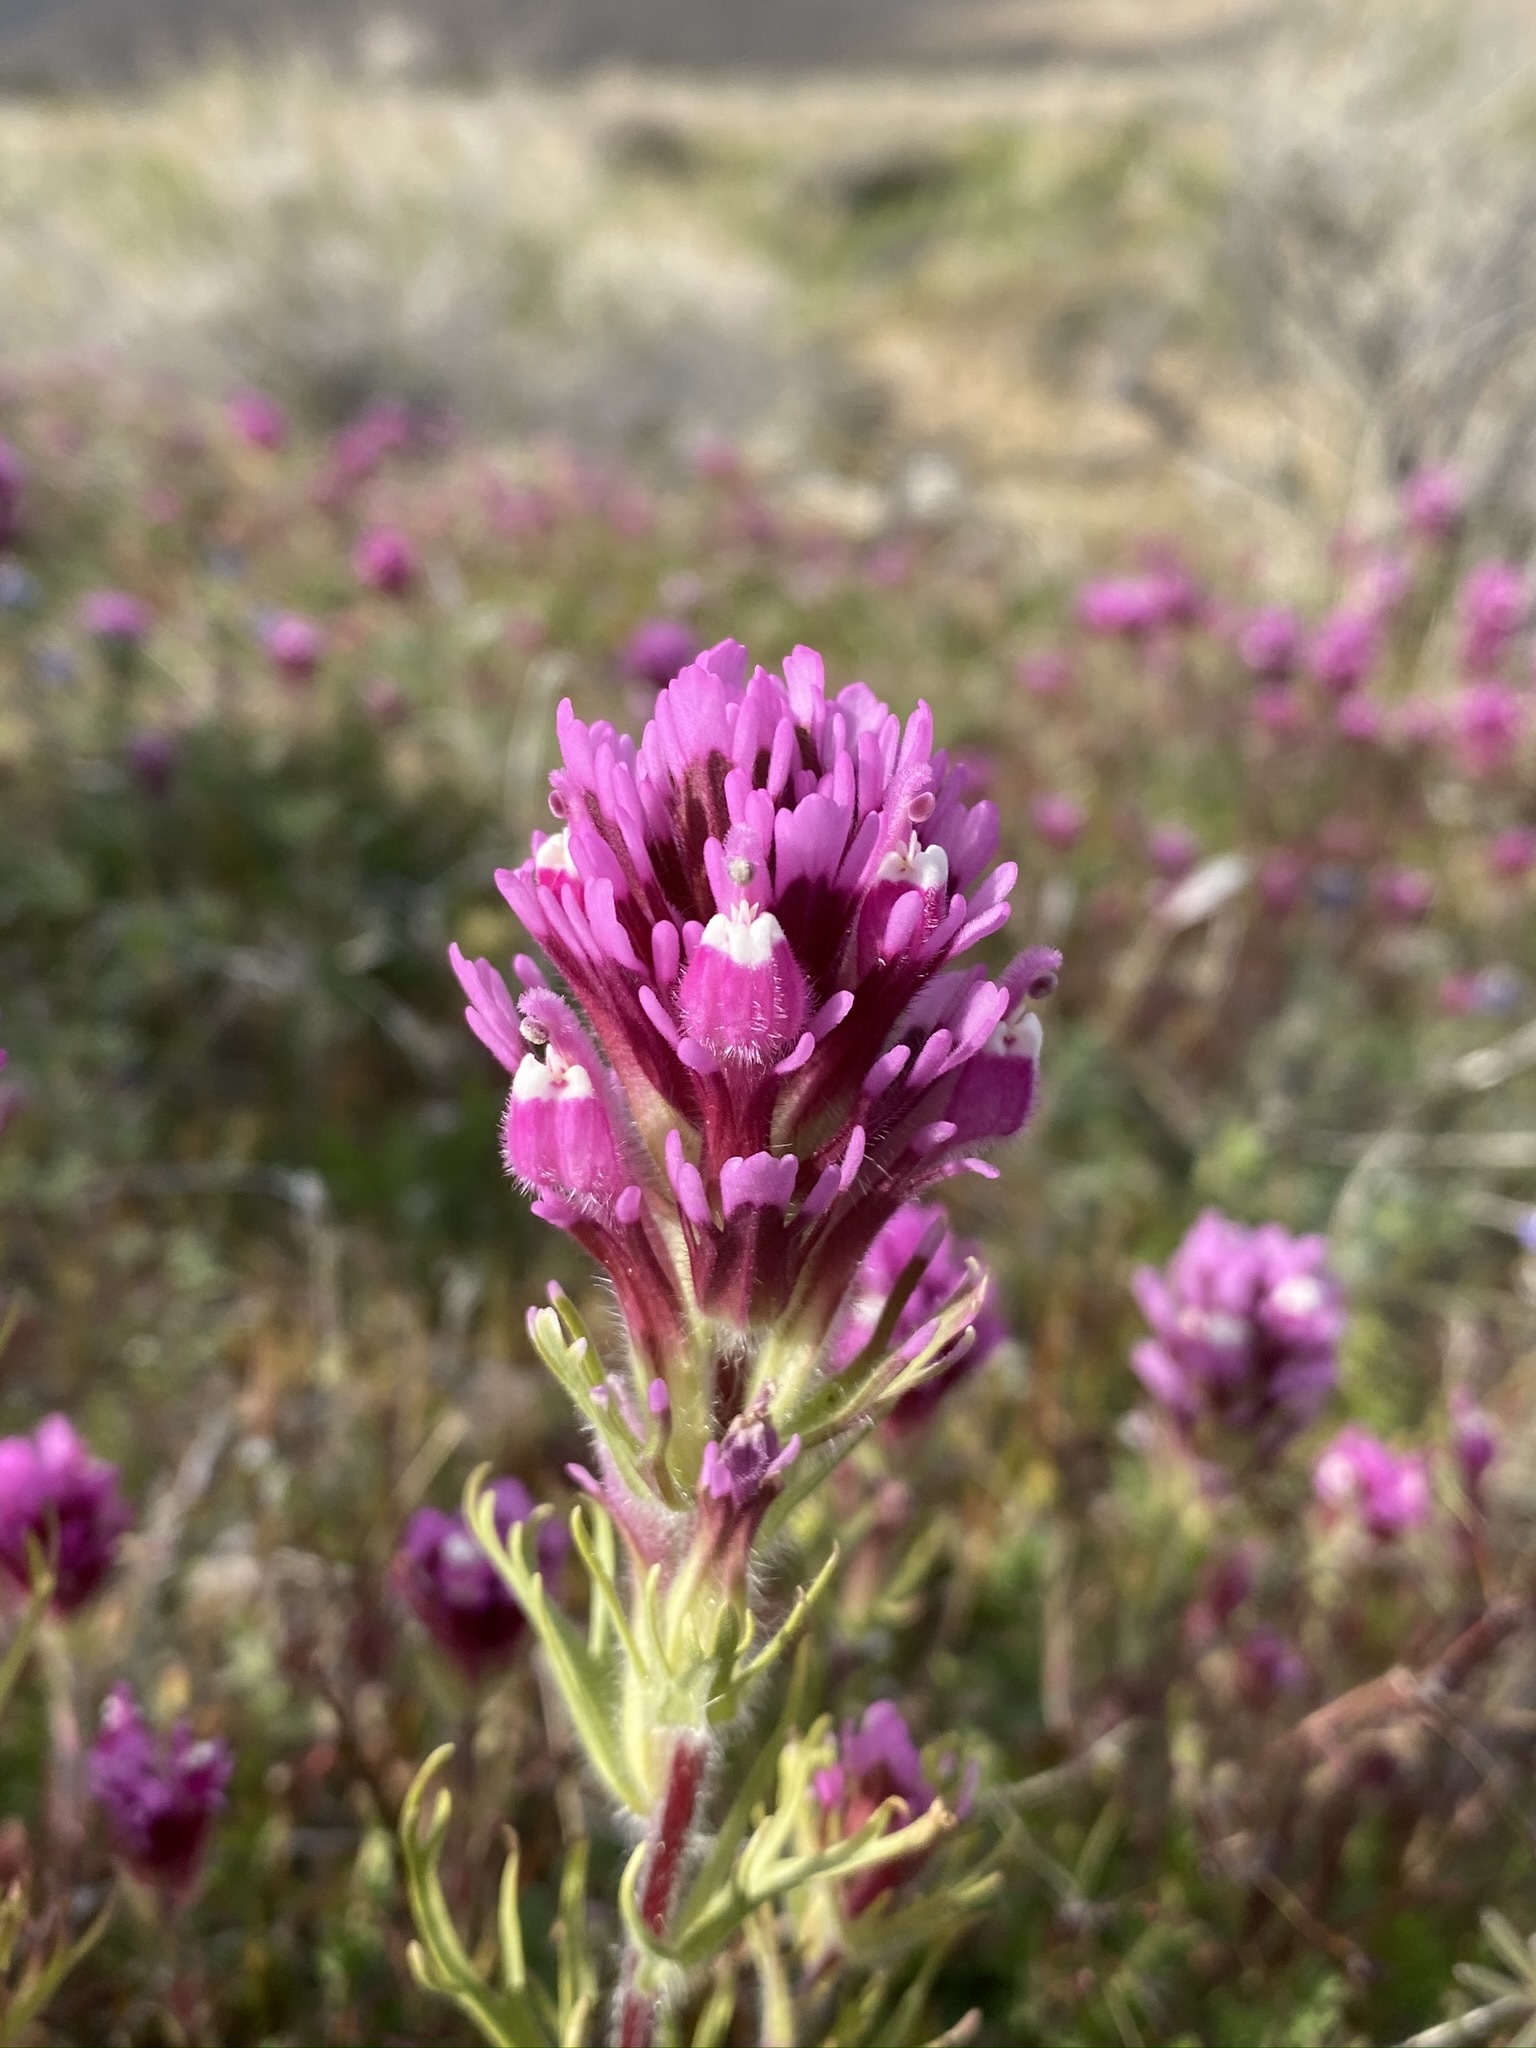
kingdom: Plantae
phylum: Tracheophyta
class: Magnoliopsida
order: Lamiales
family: Orobanchaceae
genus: Castilleja
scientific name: Castilleja exserta
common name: Purple owl-clover
